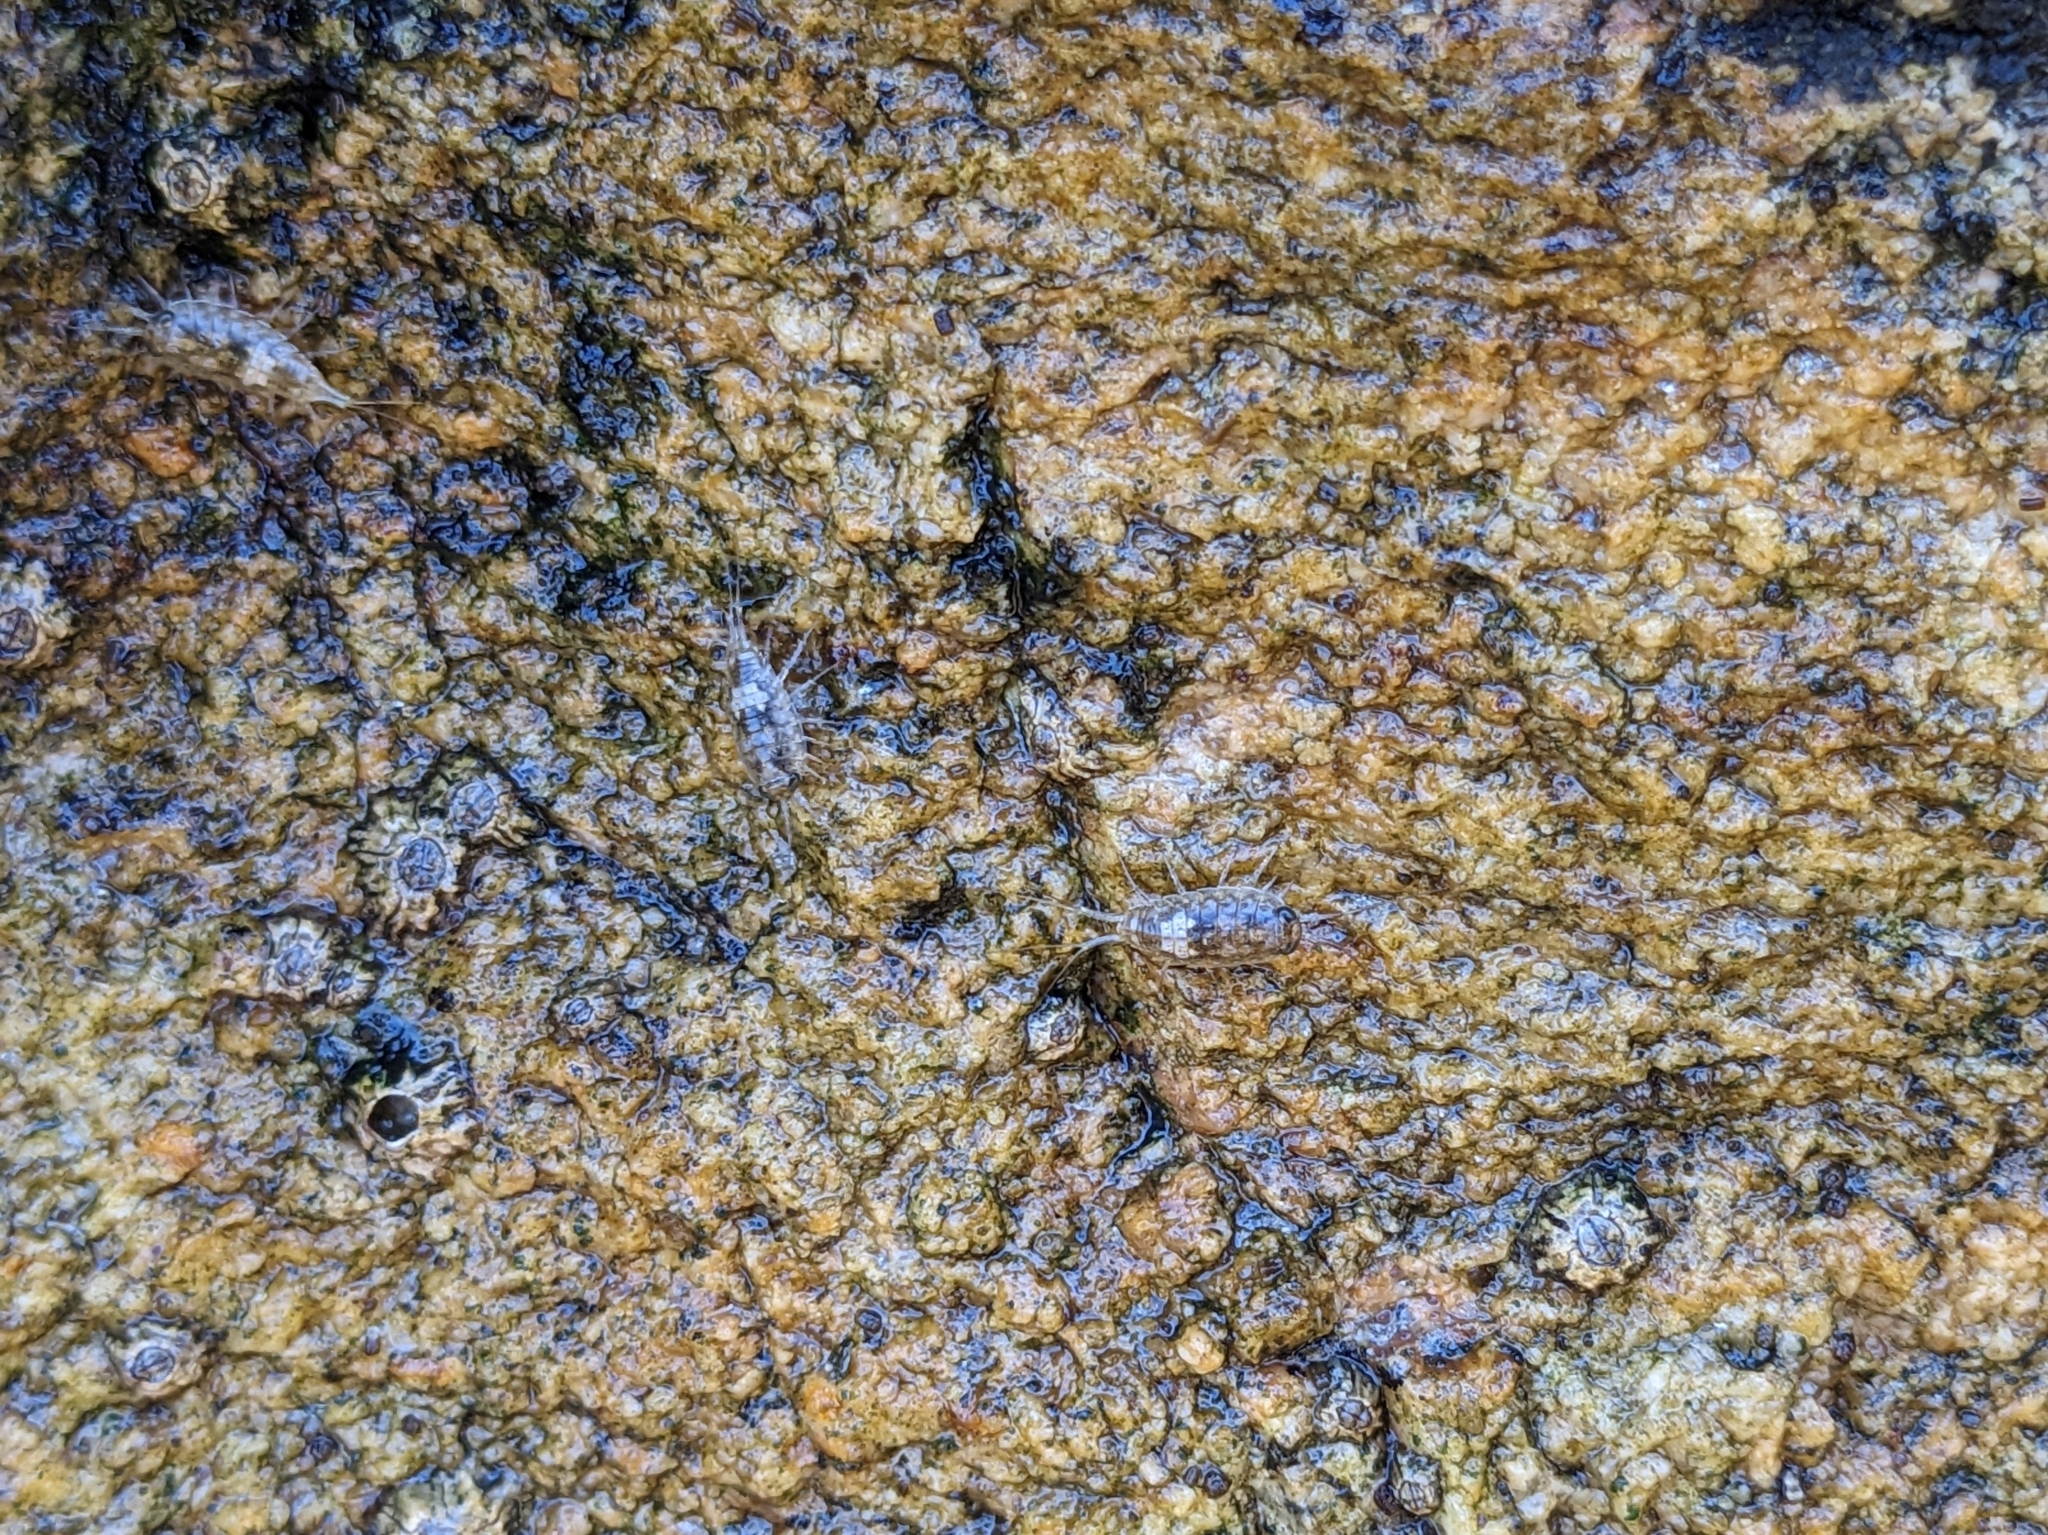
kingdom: Animalia
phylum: Arthropoda
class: Malacostraca
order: Isopoda
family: Ligiidae
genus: Ligia
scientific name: Ligia italica
